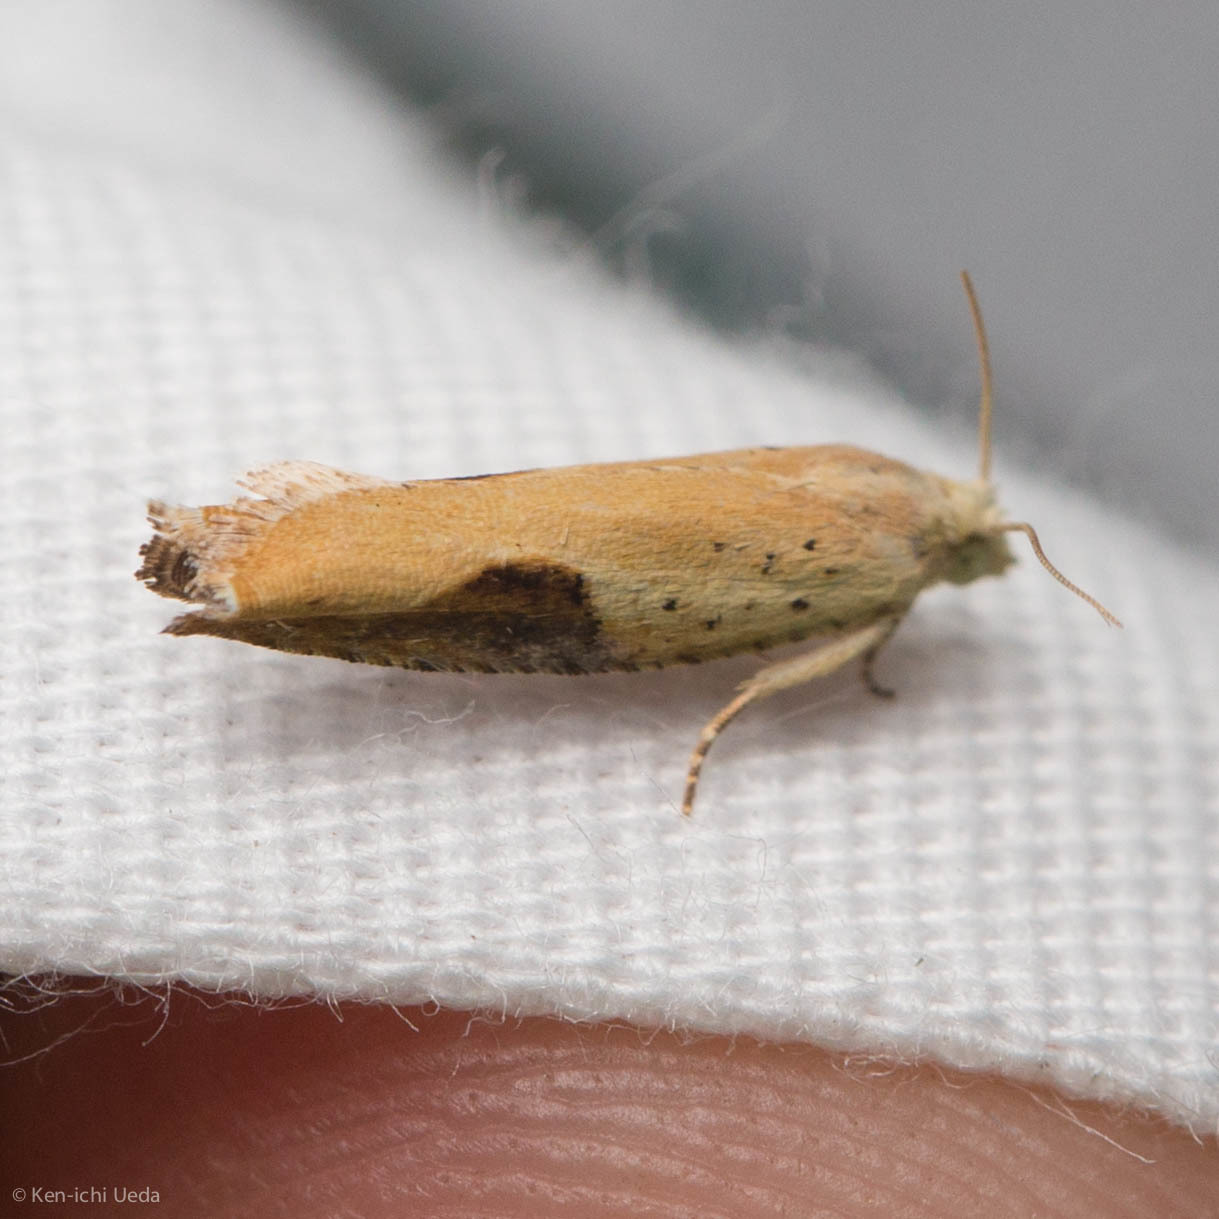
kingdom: Animalia
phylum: Arthropoda
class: Insecta
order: Lepidoptera
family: Tortricidae
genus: Pseudexentera
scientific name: Pseudexentera costomaculana
